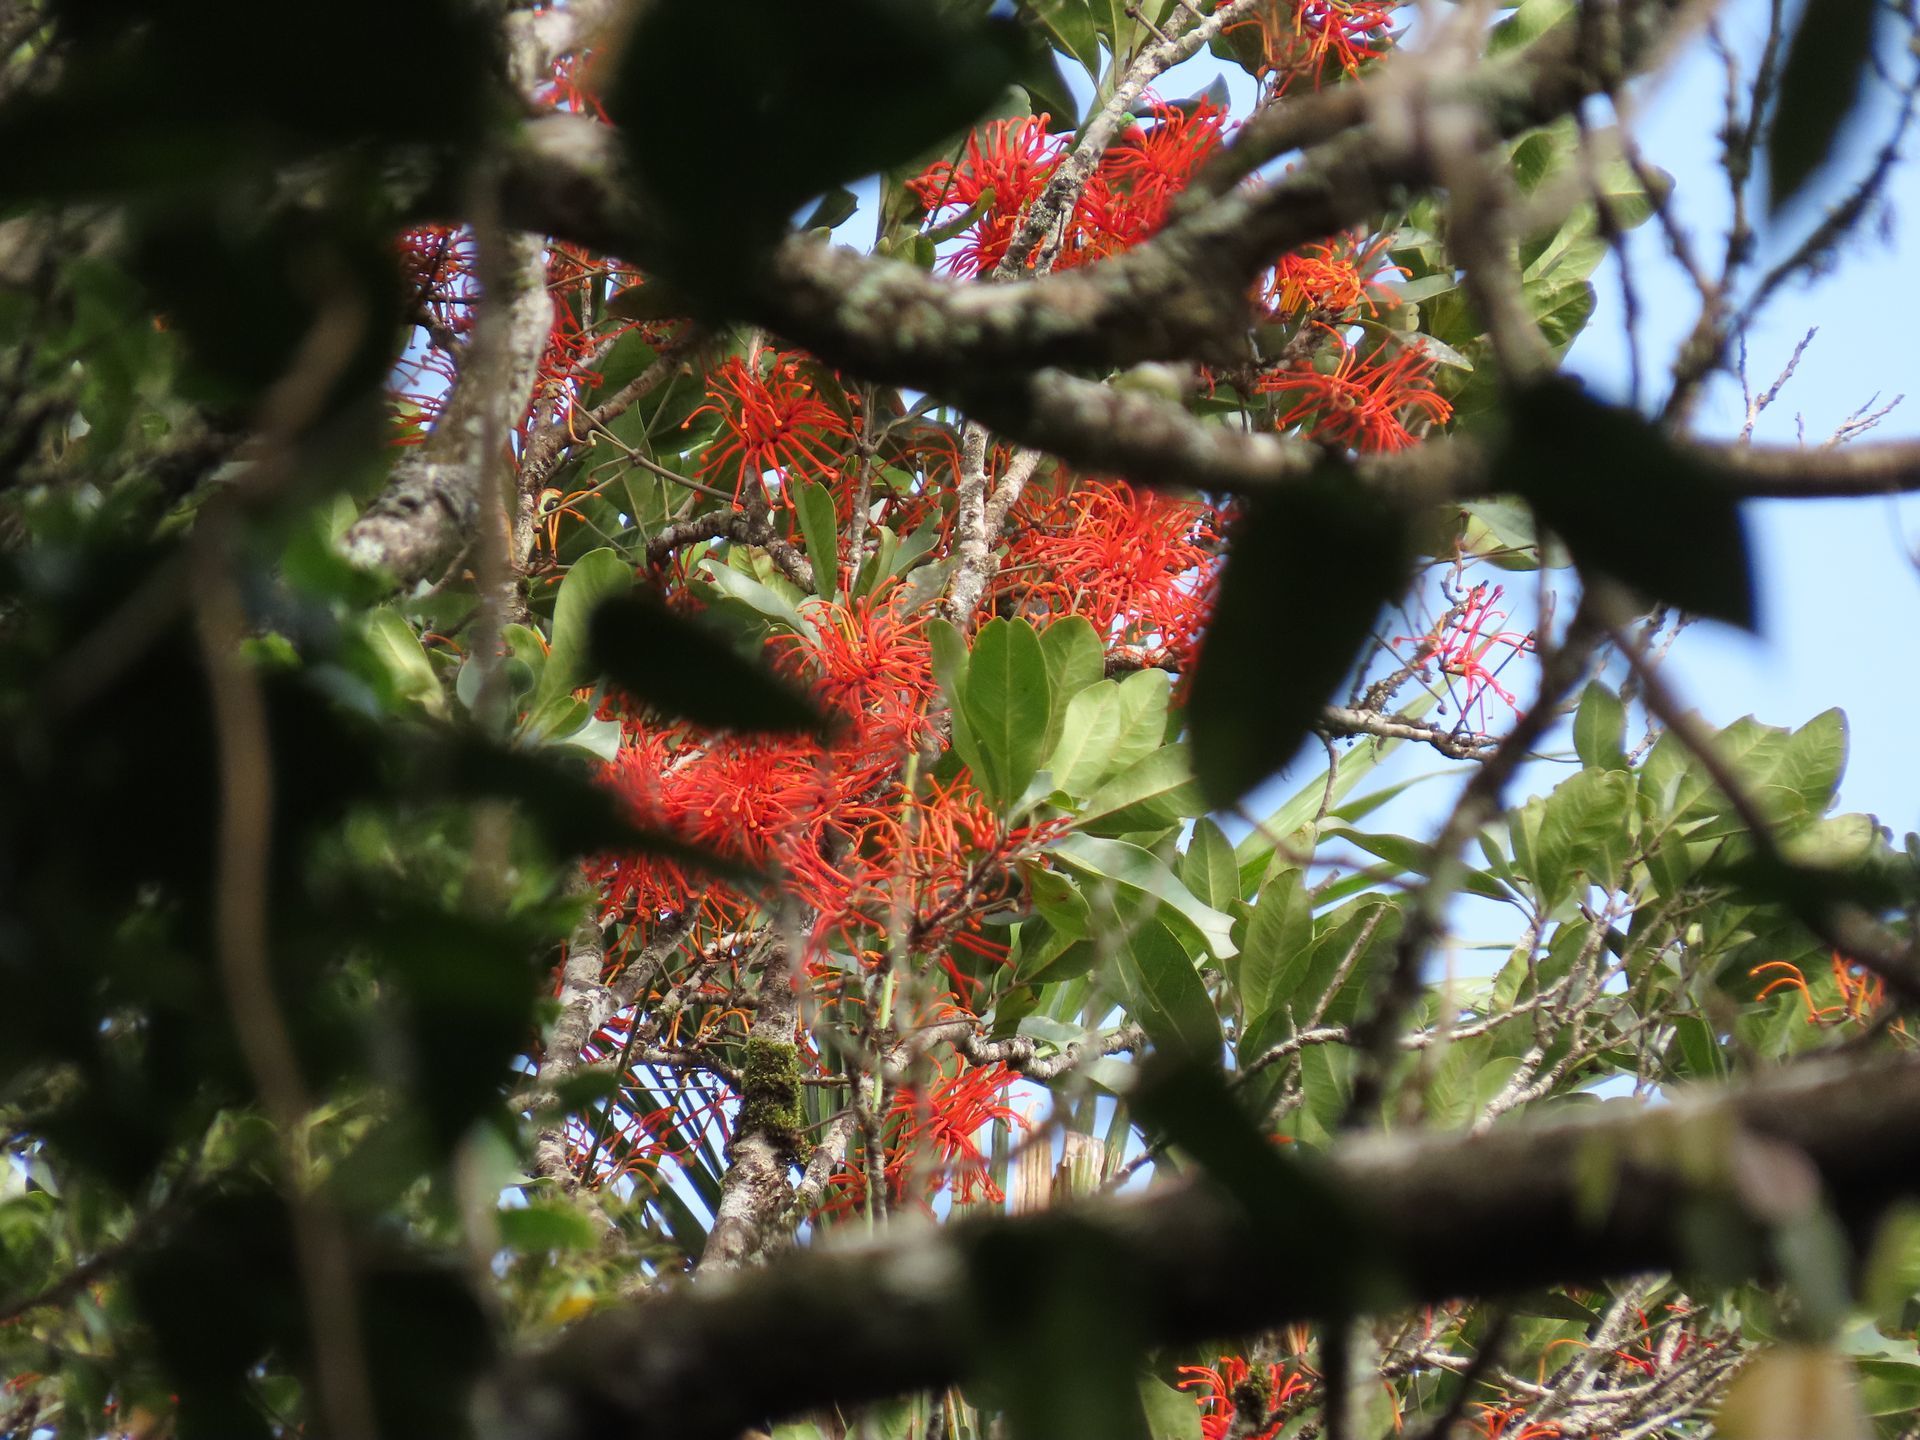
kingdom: Plantae
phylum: Tracheophyta
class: Magnoliopsida
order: Proteales
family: Proteaceae
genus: Stenocarpus
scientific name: Stenocarpus sinuatus
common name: Queensland fire-wheel-tree
